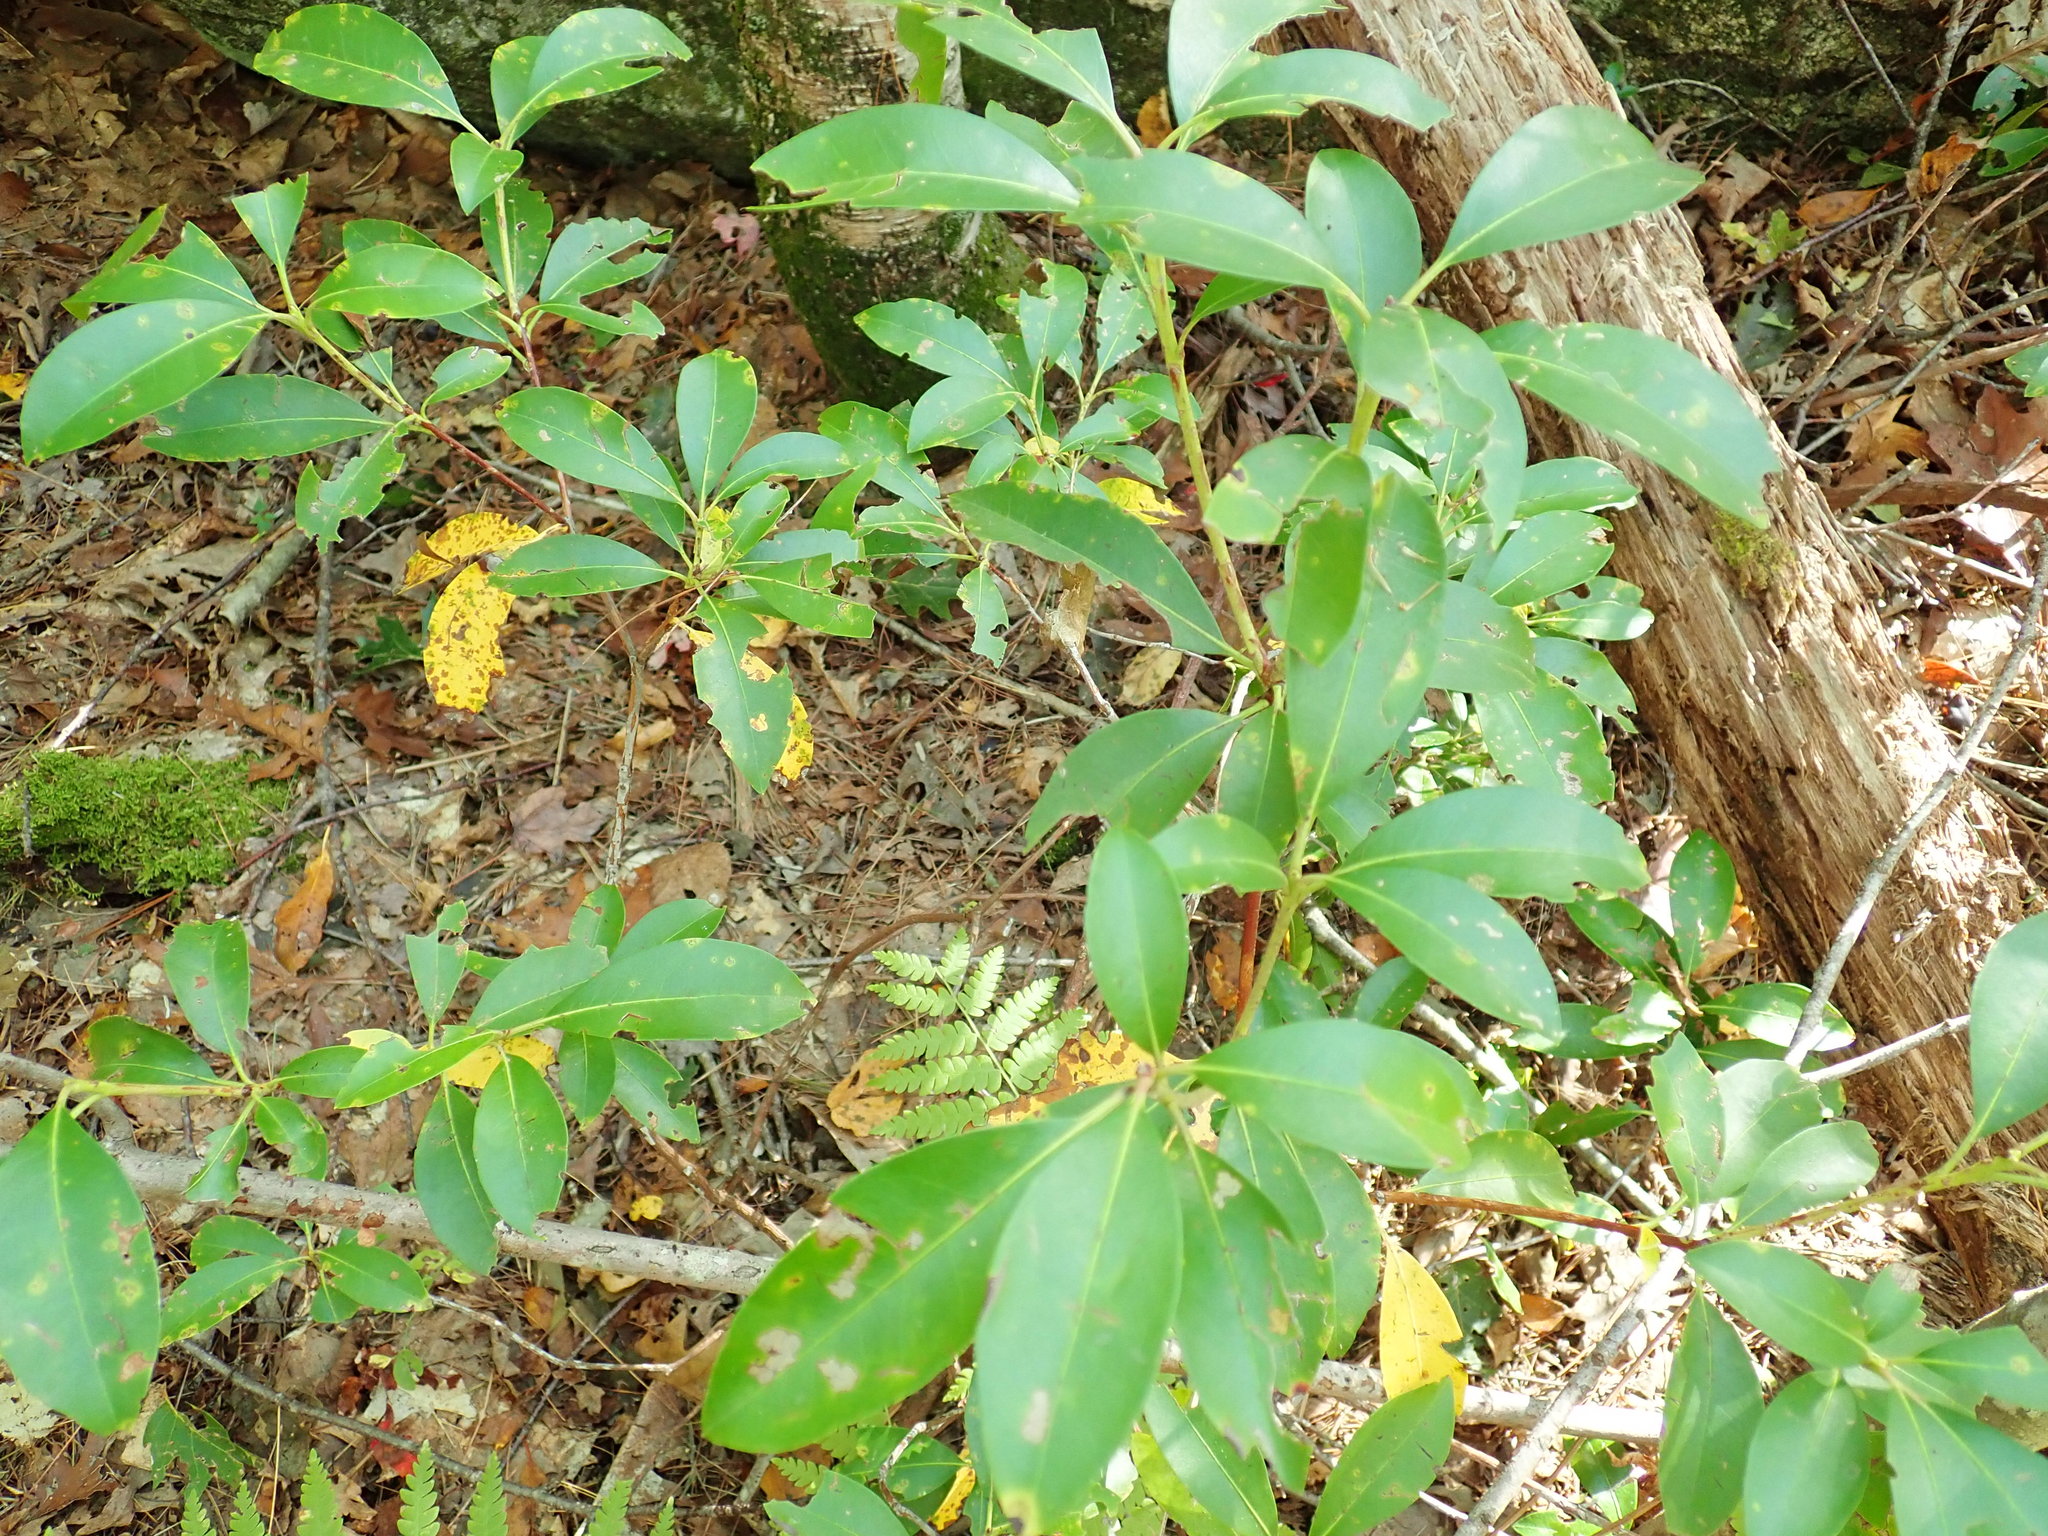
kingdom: Plantae
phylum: Tracheophyta
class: Magnoliopsida
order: Ericales
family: Ericaceae
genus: Kalmia
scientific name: Kalmia latifolia
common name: Mountain-laurel
